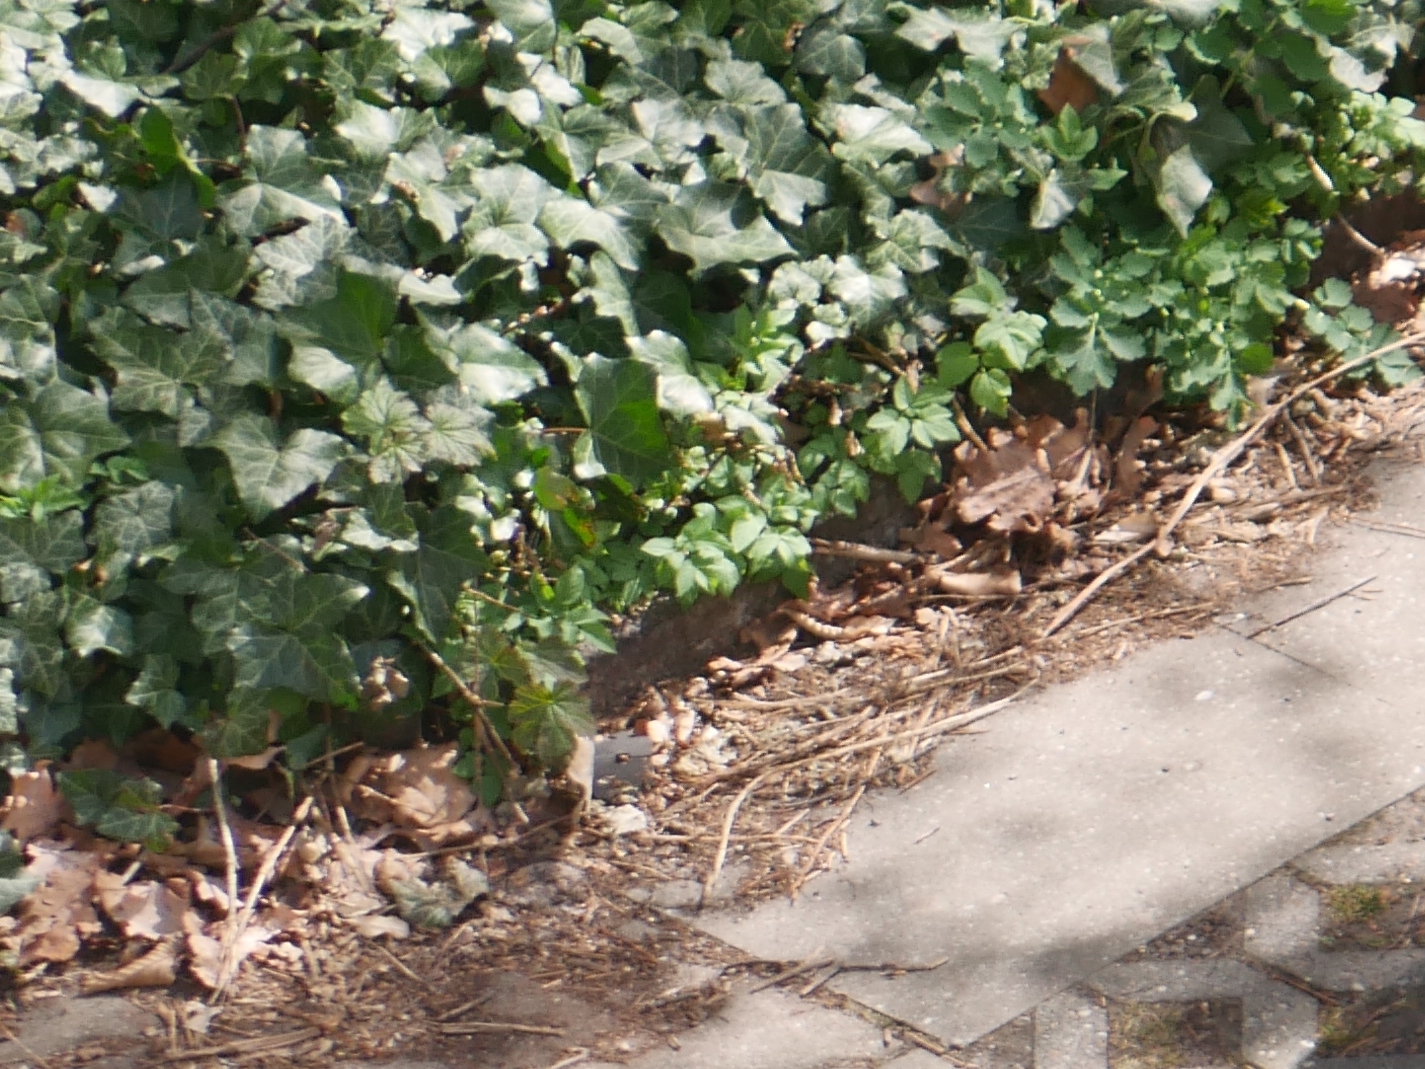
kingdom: Plantae
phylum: Tracheophyta
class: Magnoliopsida
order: Apiales
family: Apiaceae
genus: Aegopodium
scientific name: Aegopodium podagraria
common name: Ground-elder
